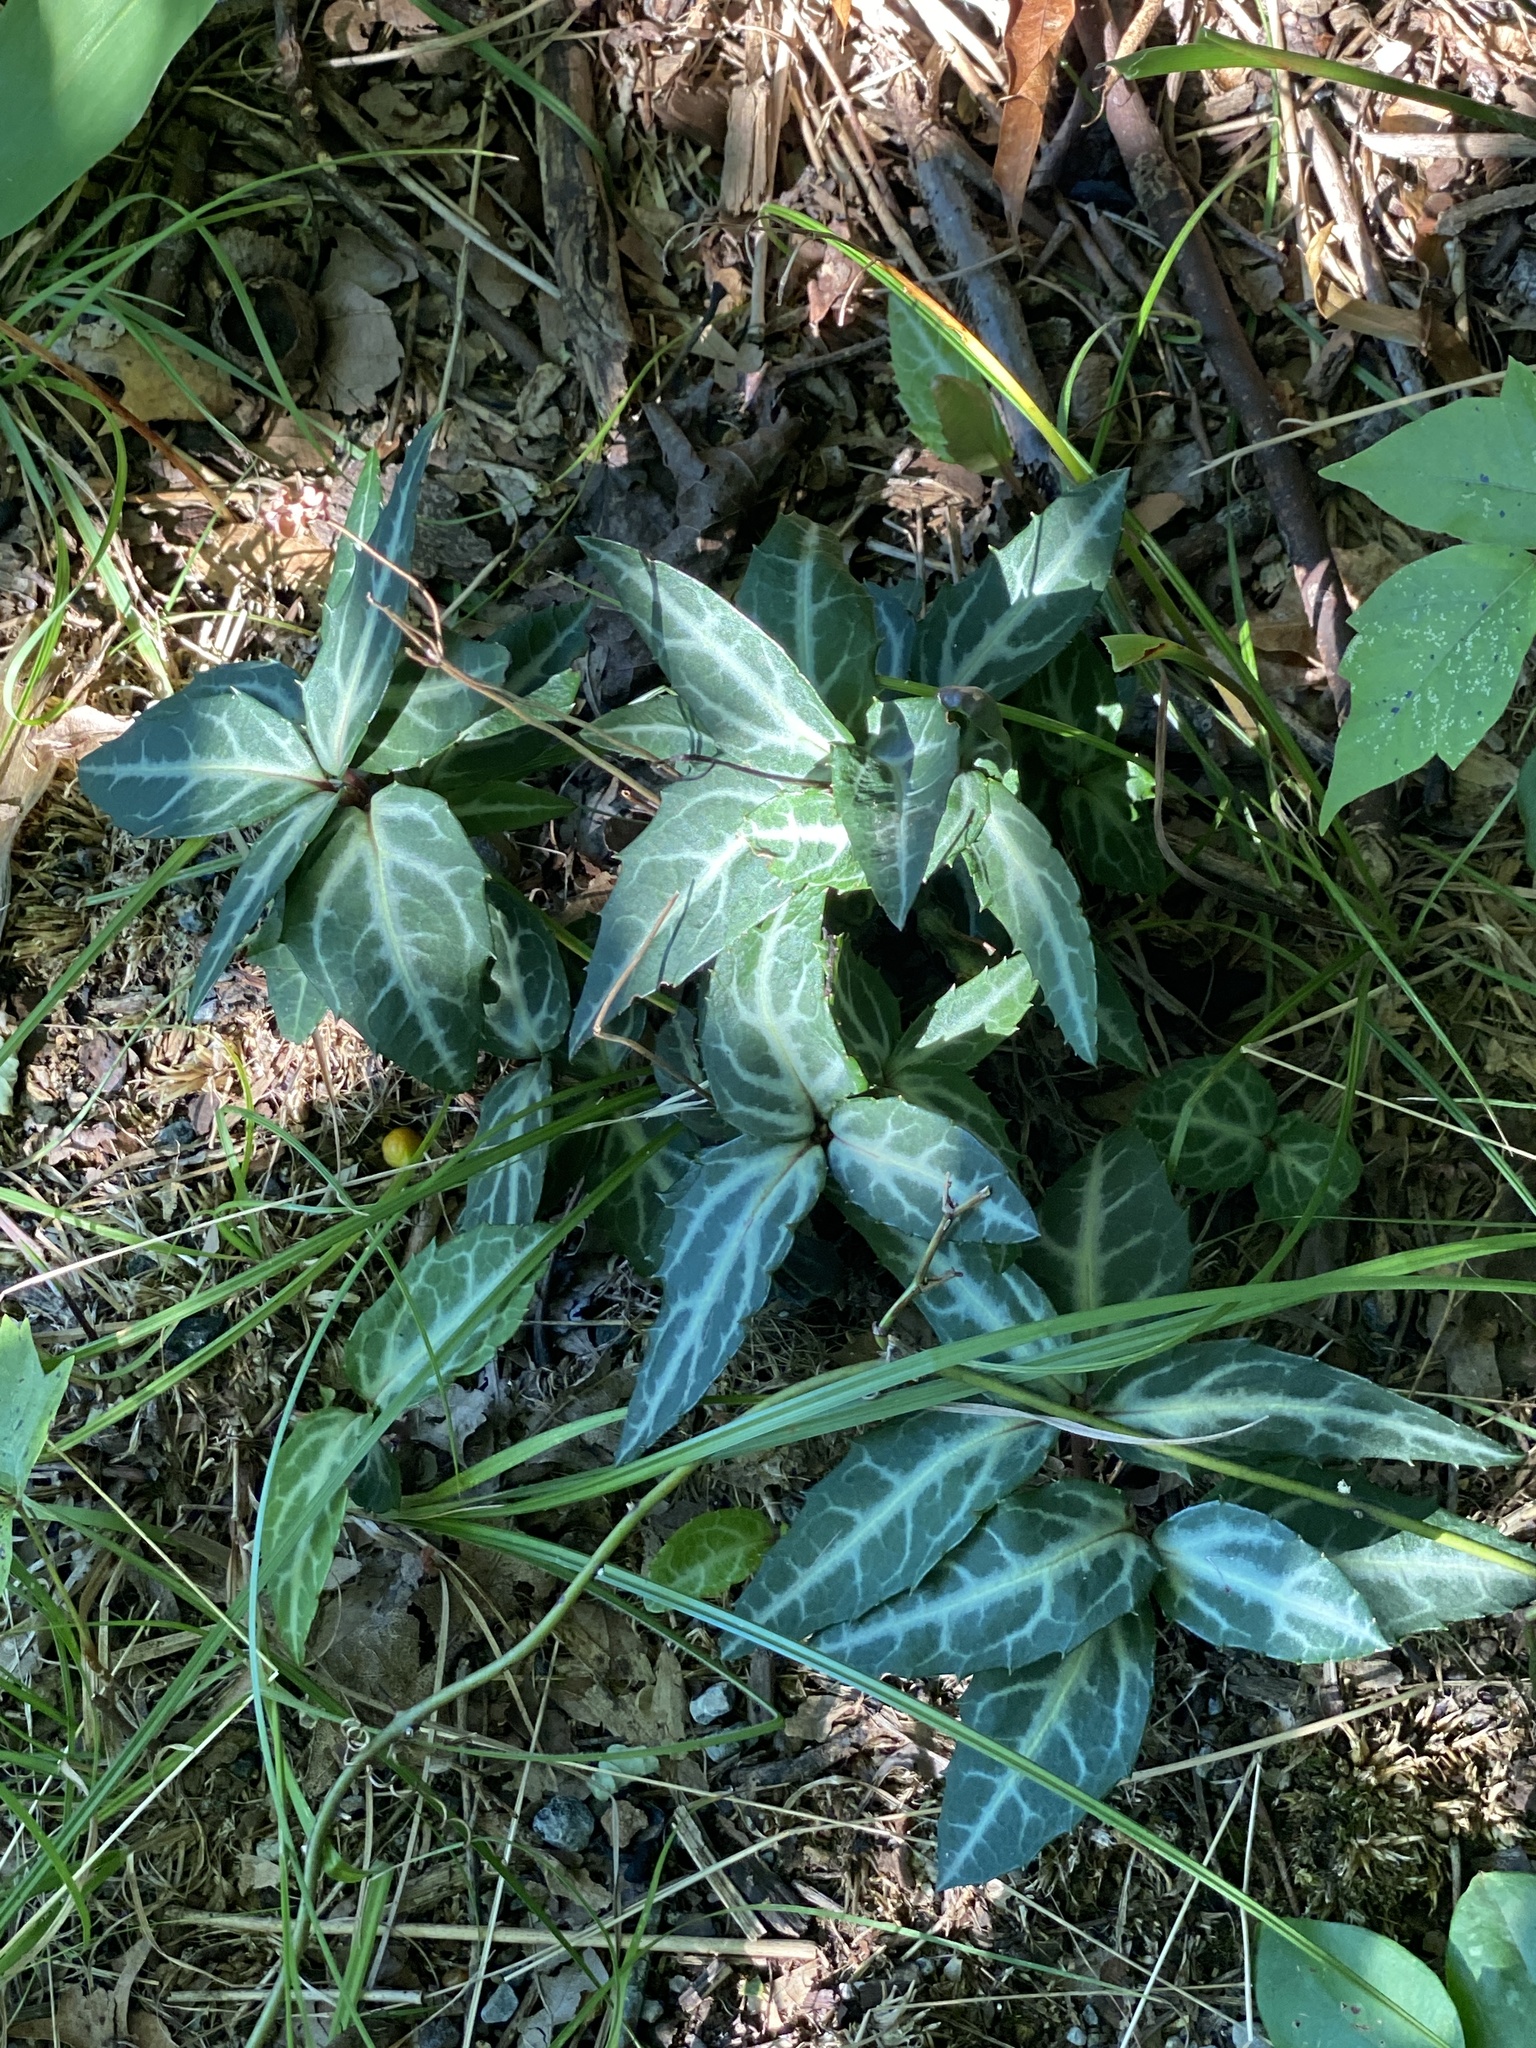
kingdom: Plantae
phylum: Tracheophyta
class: Magnoliopsida
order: Ericales
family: Ericaceae
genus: Chimaphila
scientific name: Chimaphila maculata
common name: Spotted pipsissewa
